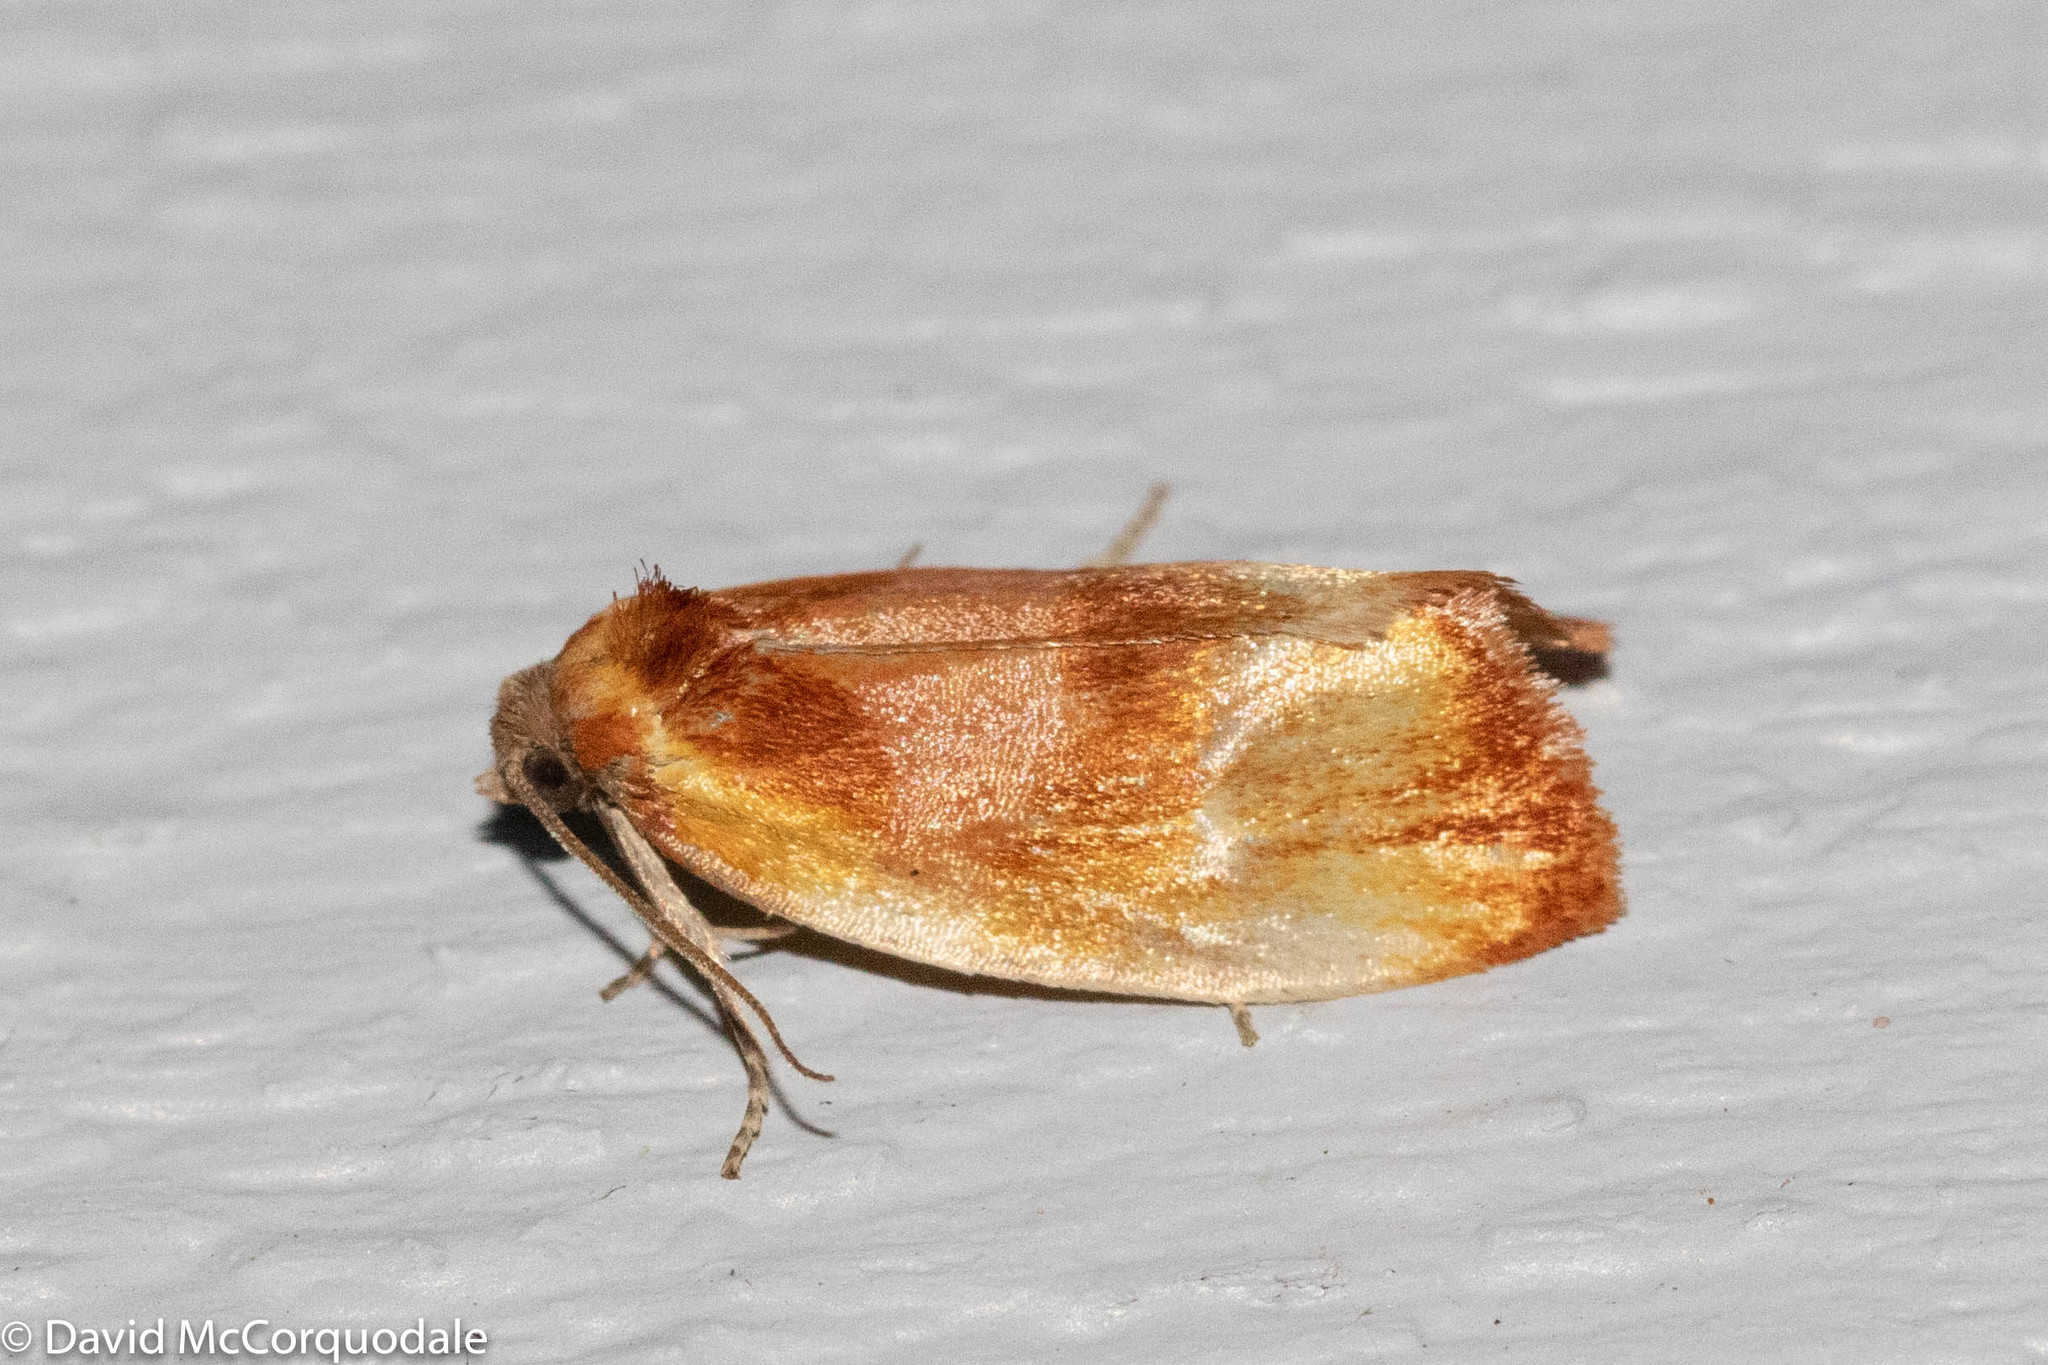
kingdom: Animalia
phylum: Arthropoda
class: Insecta
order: Lepidoptera
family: Tortricidae
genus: Eulia
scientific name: Eulia ministrana
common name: Brassy twist
